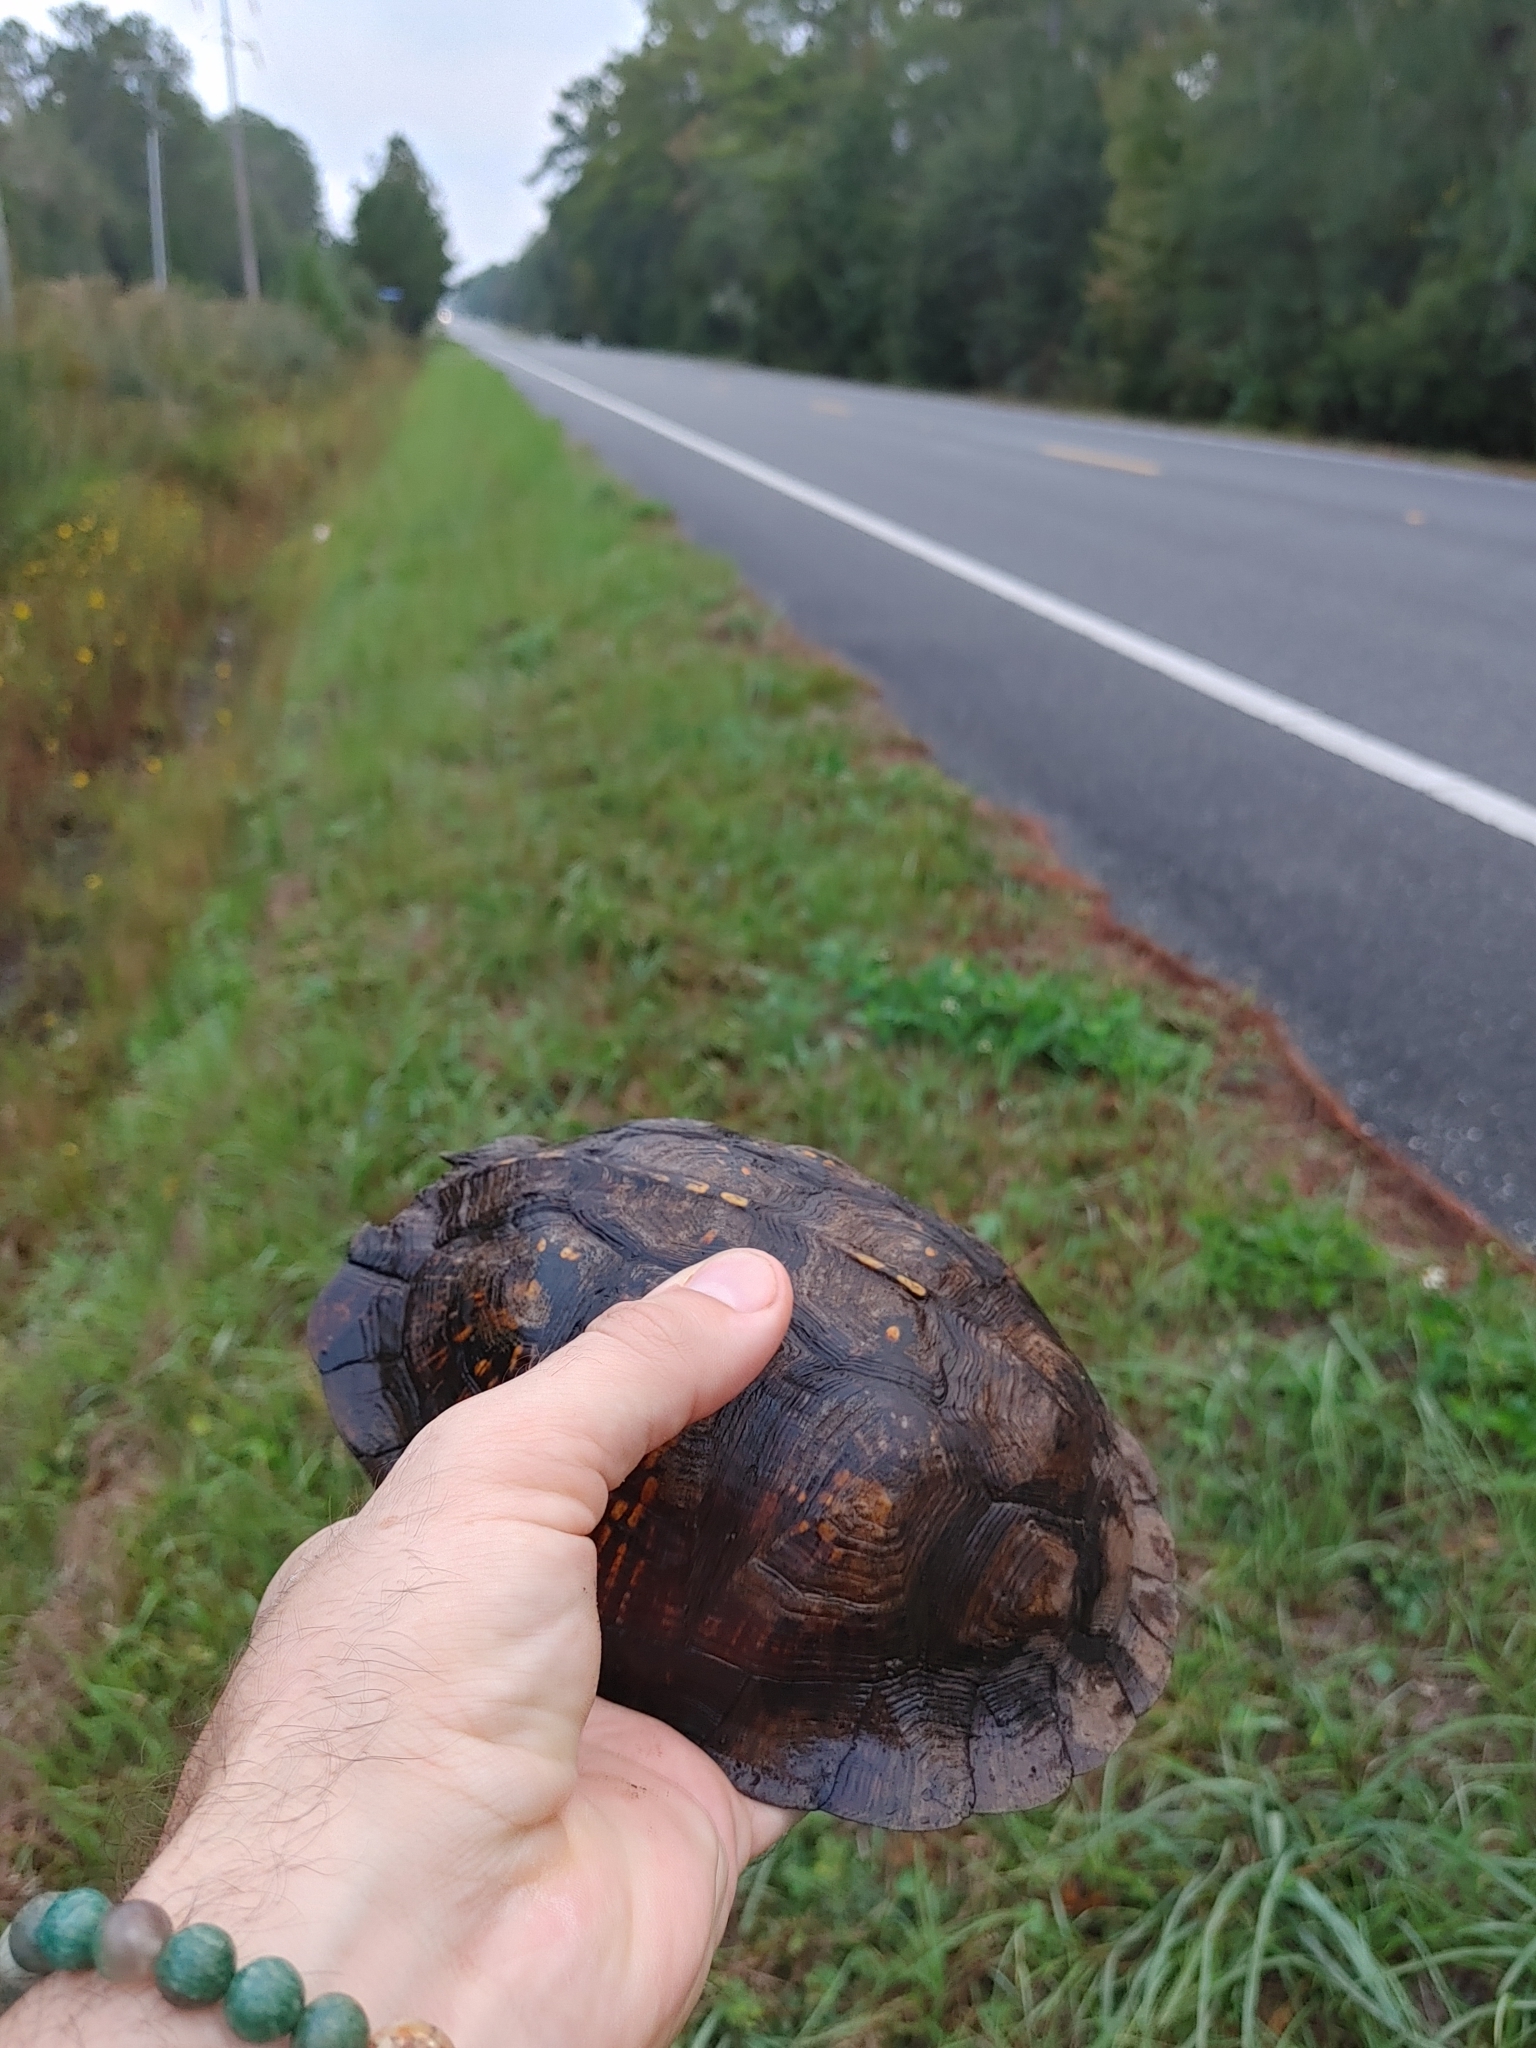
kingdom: Animalia
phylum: Chordata
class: Testudines
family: Emydidae
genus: Terrapene
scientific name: Terrapene carolina
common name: Common box turtle
